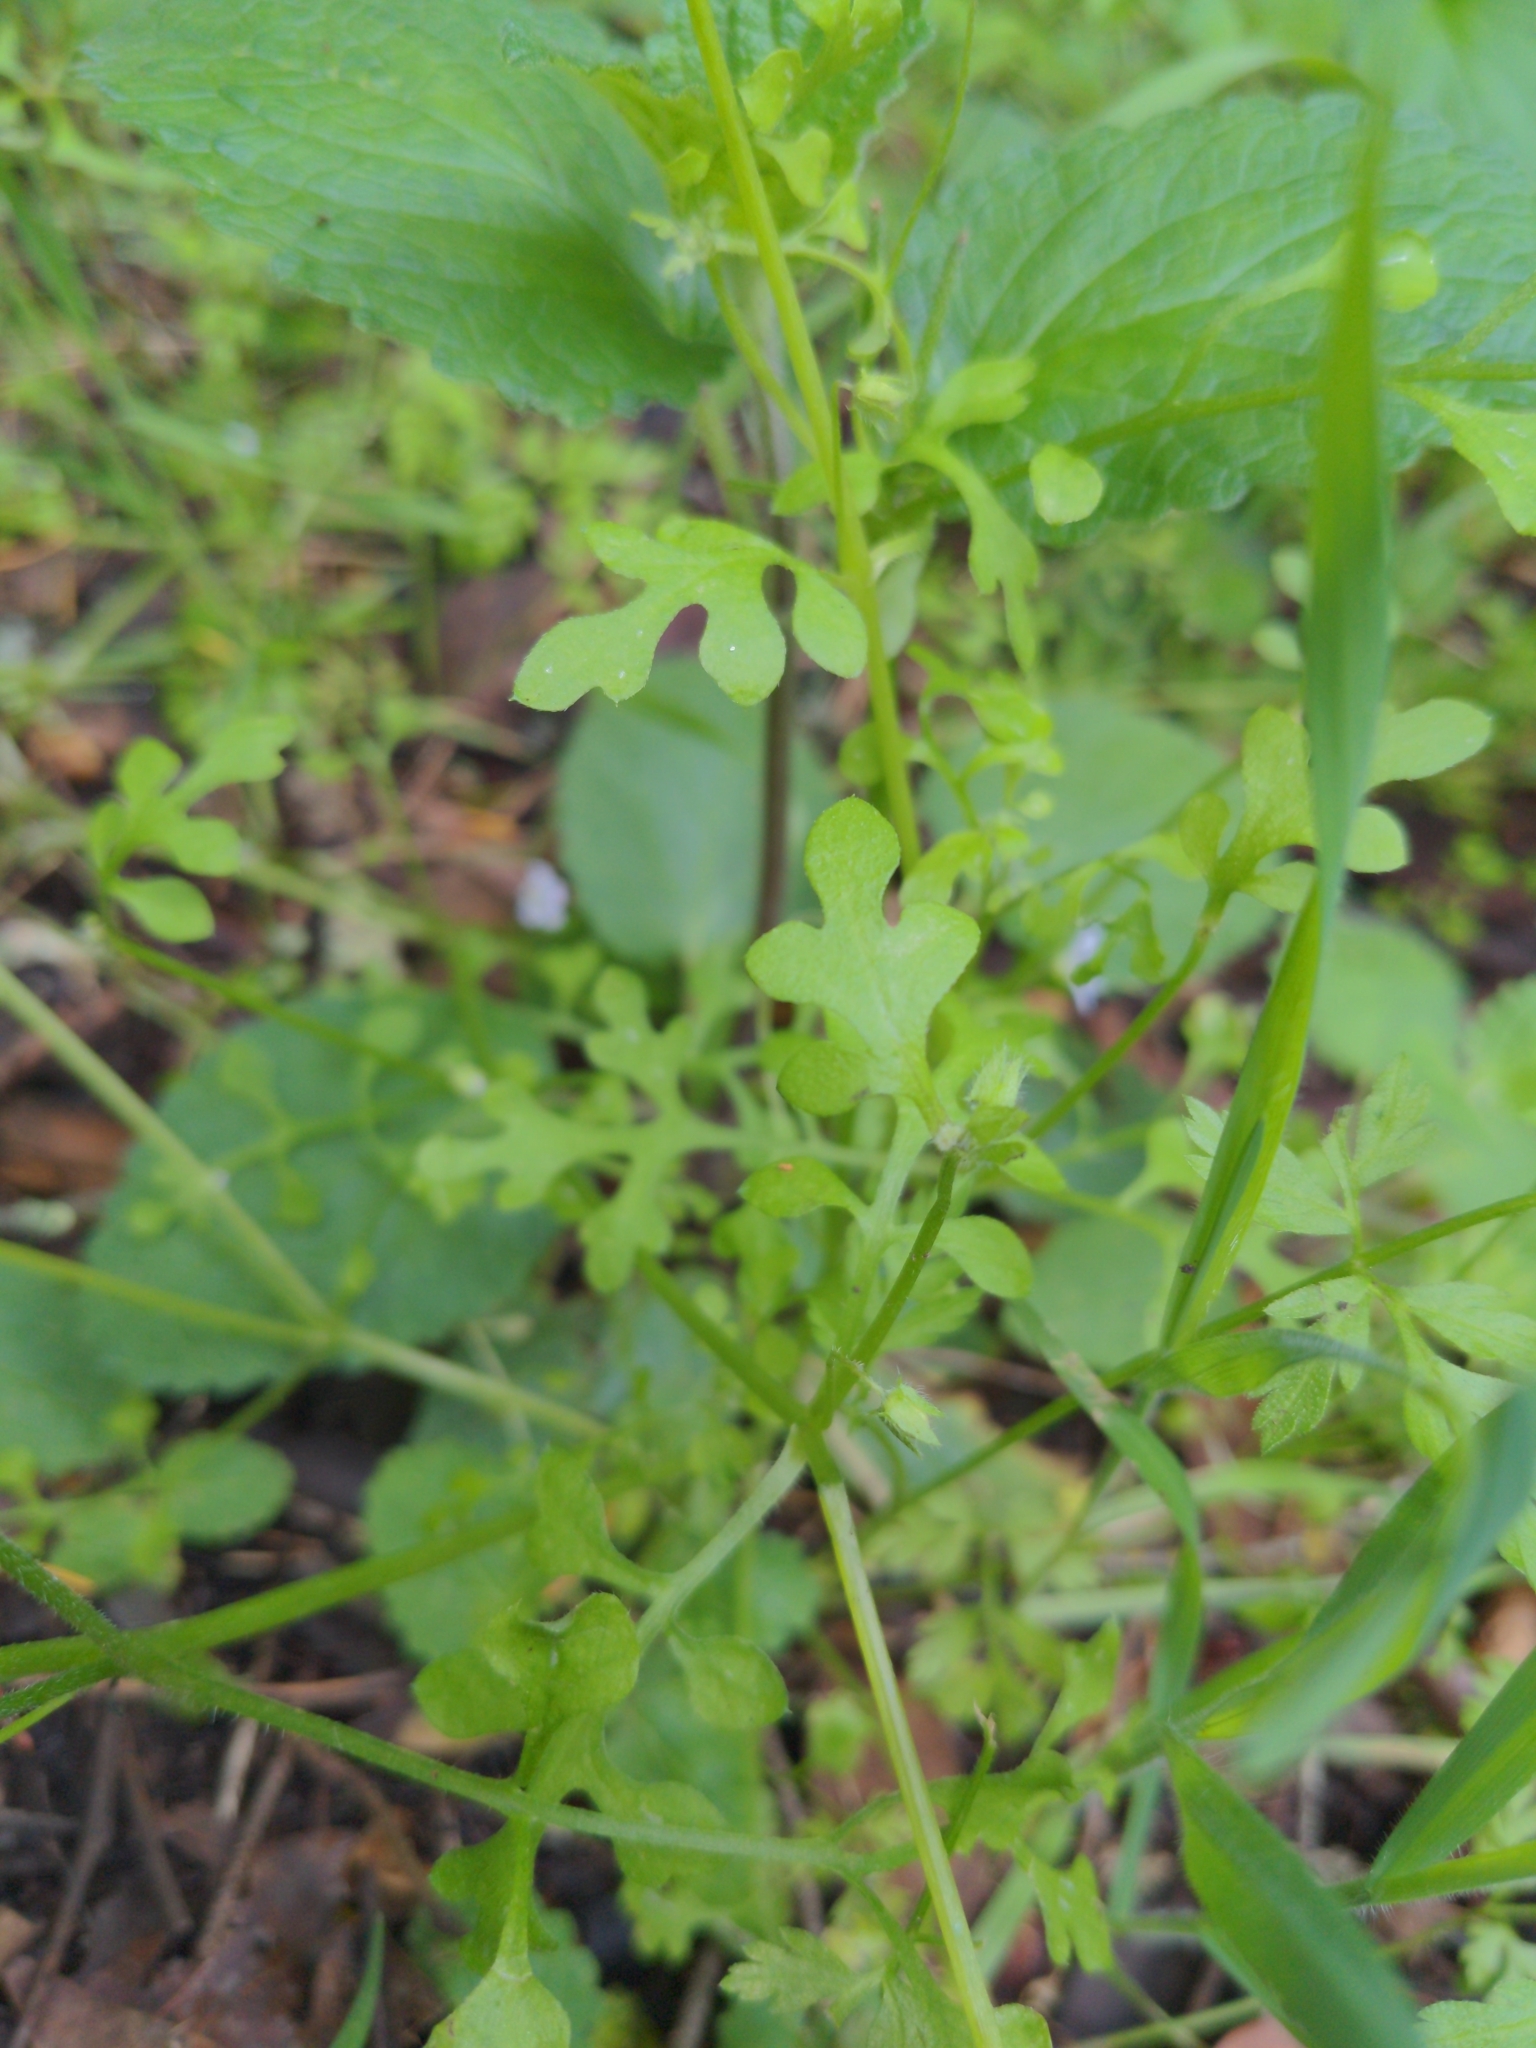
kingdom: Plantae
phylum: Tracheophyta
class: Magnoliopsida
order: Boraginales
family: Hydrophyllaceae
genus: Nemophila
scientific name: Nemophila heterophylla
